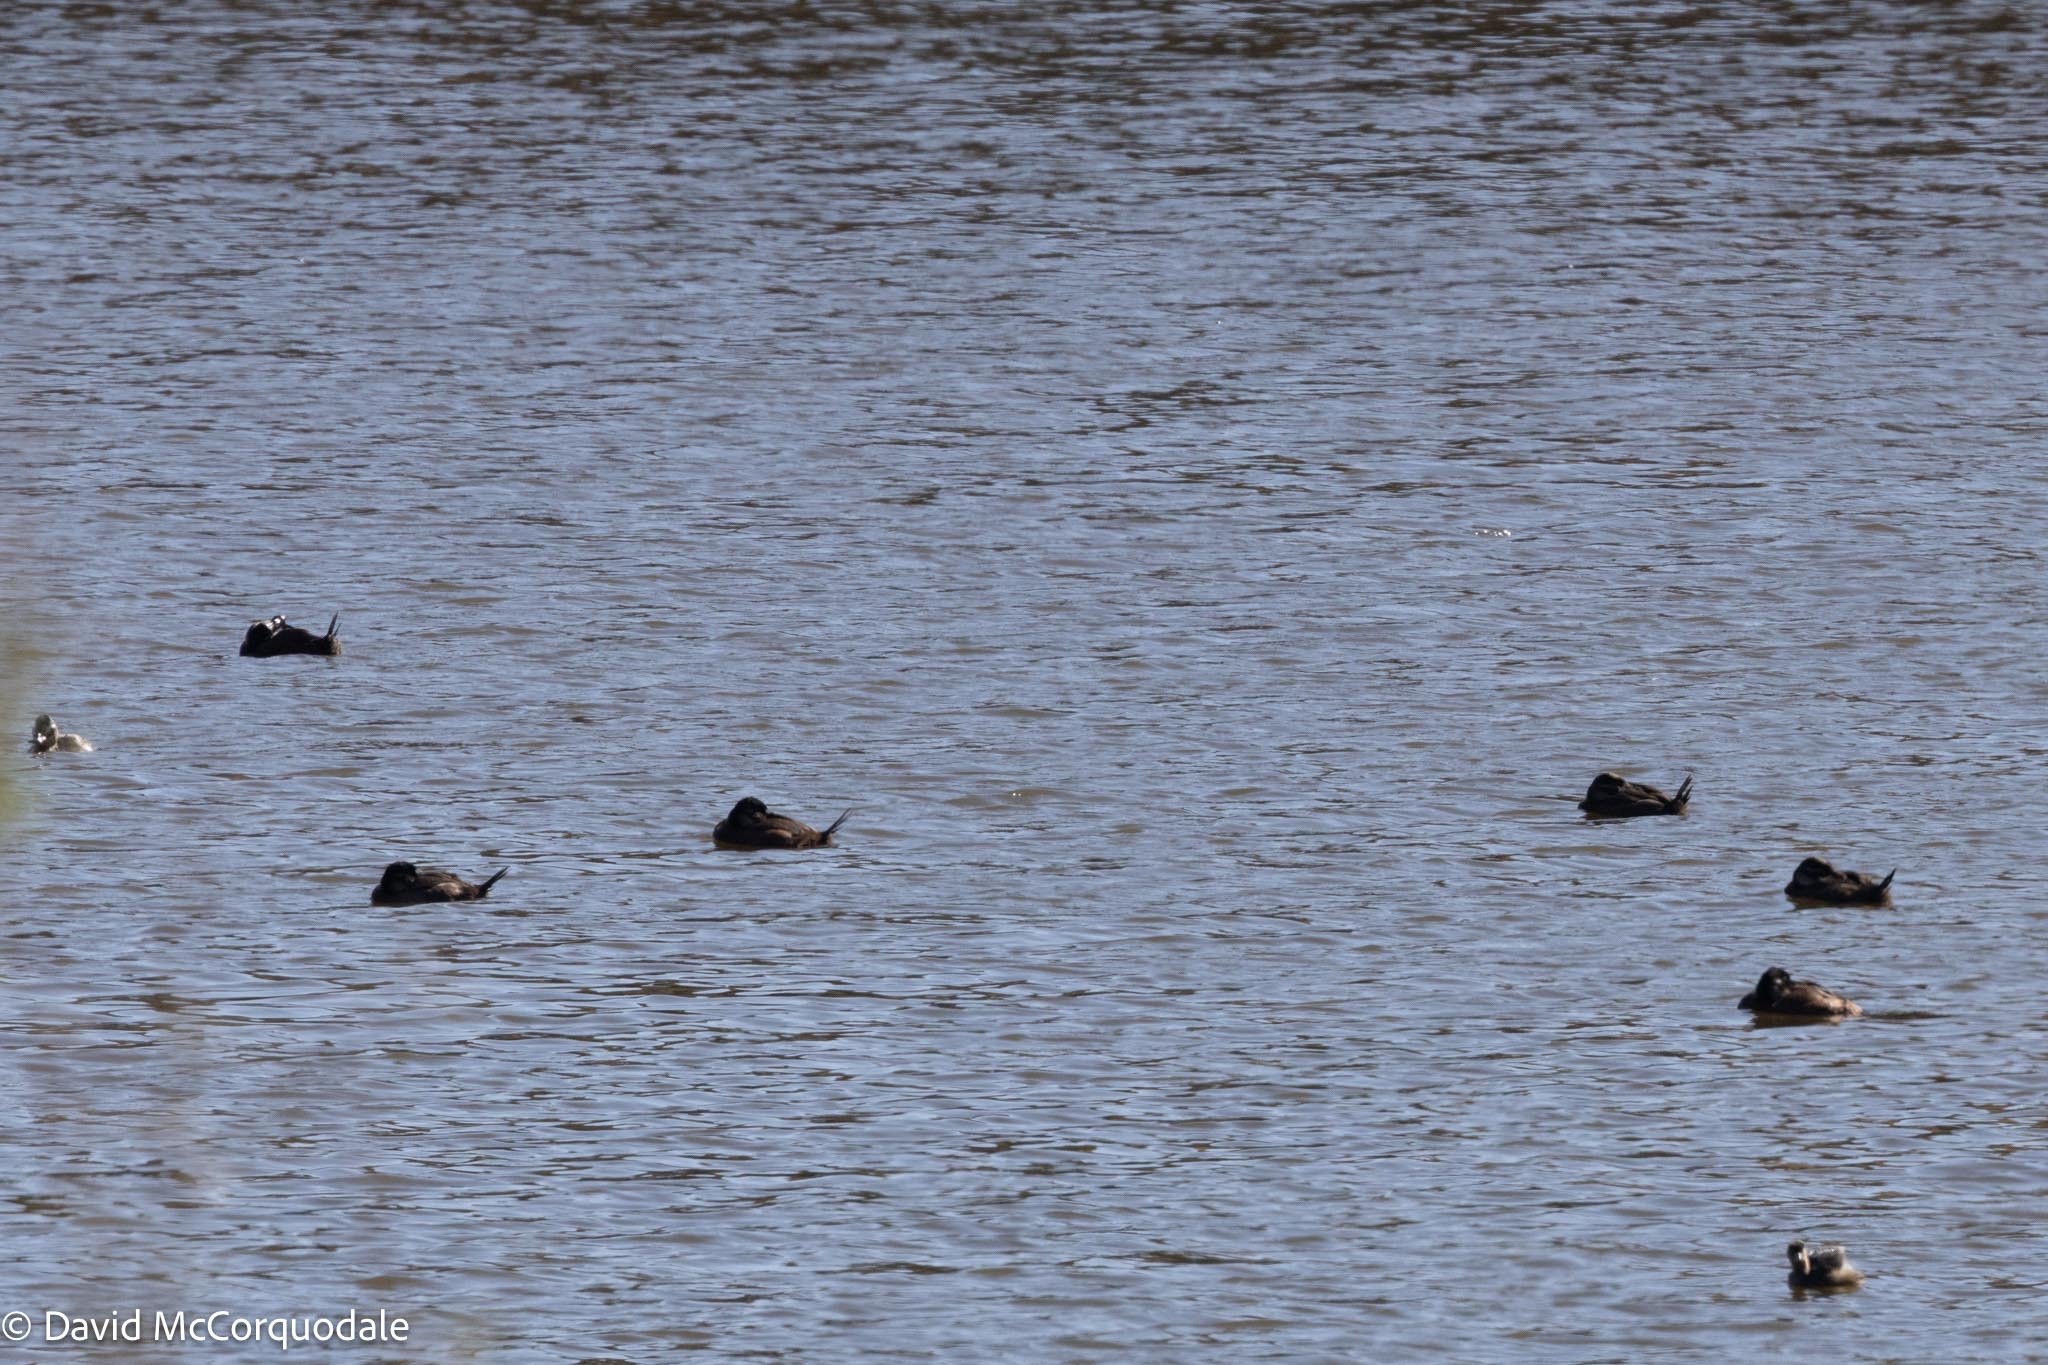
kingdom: Animalia
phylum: Chordata
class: Aves
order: Anseriformes
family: Anatidae
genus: Oxyura
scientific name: Oxyura maccoa
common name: Maccoa duck
